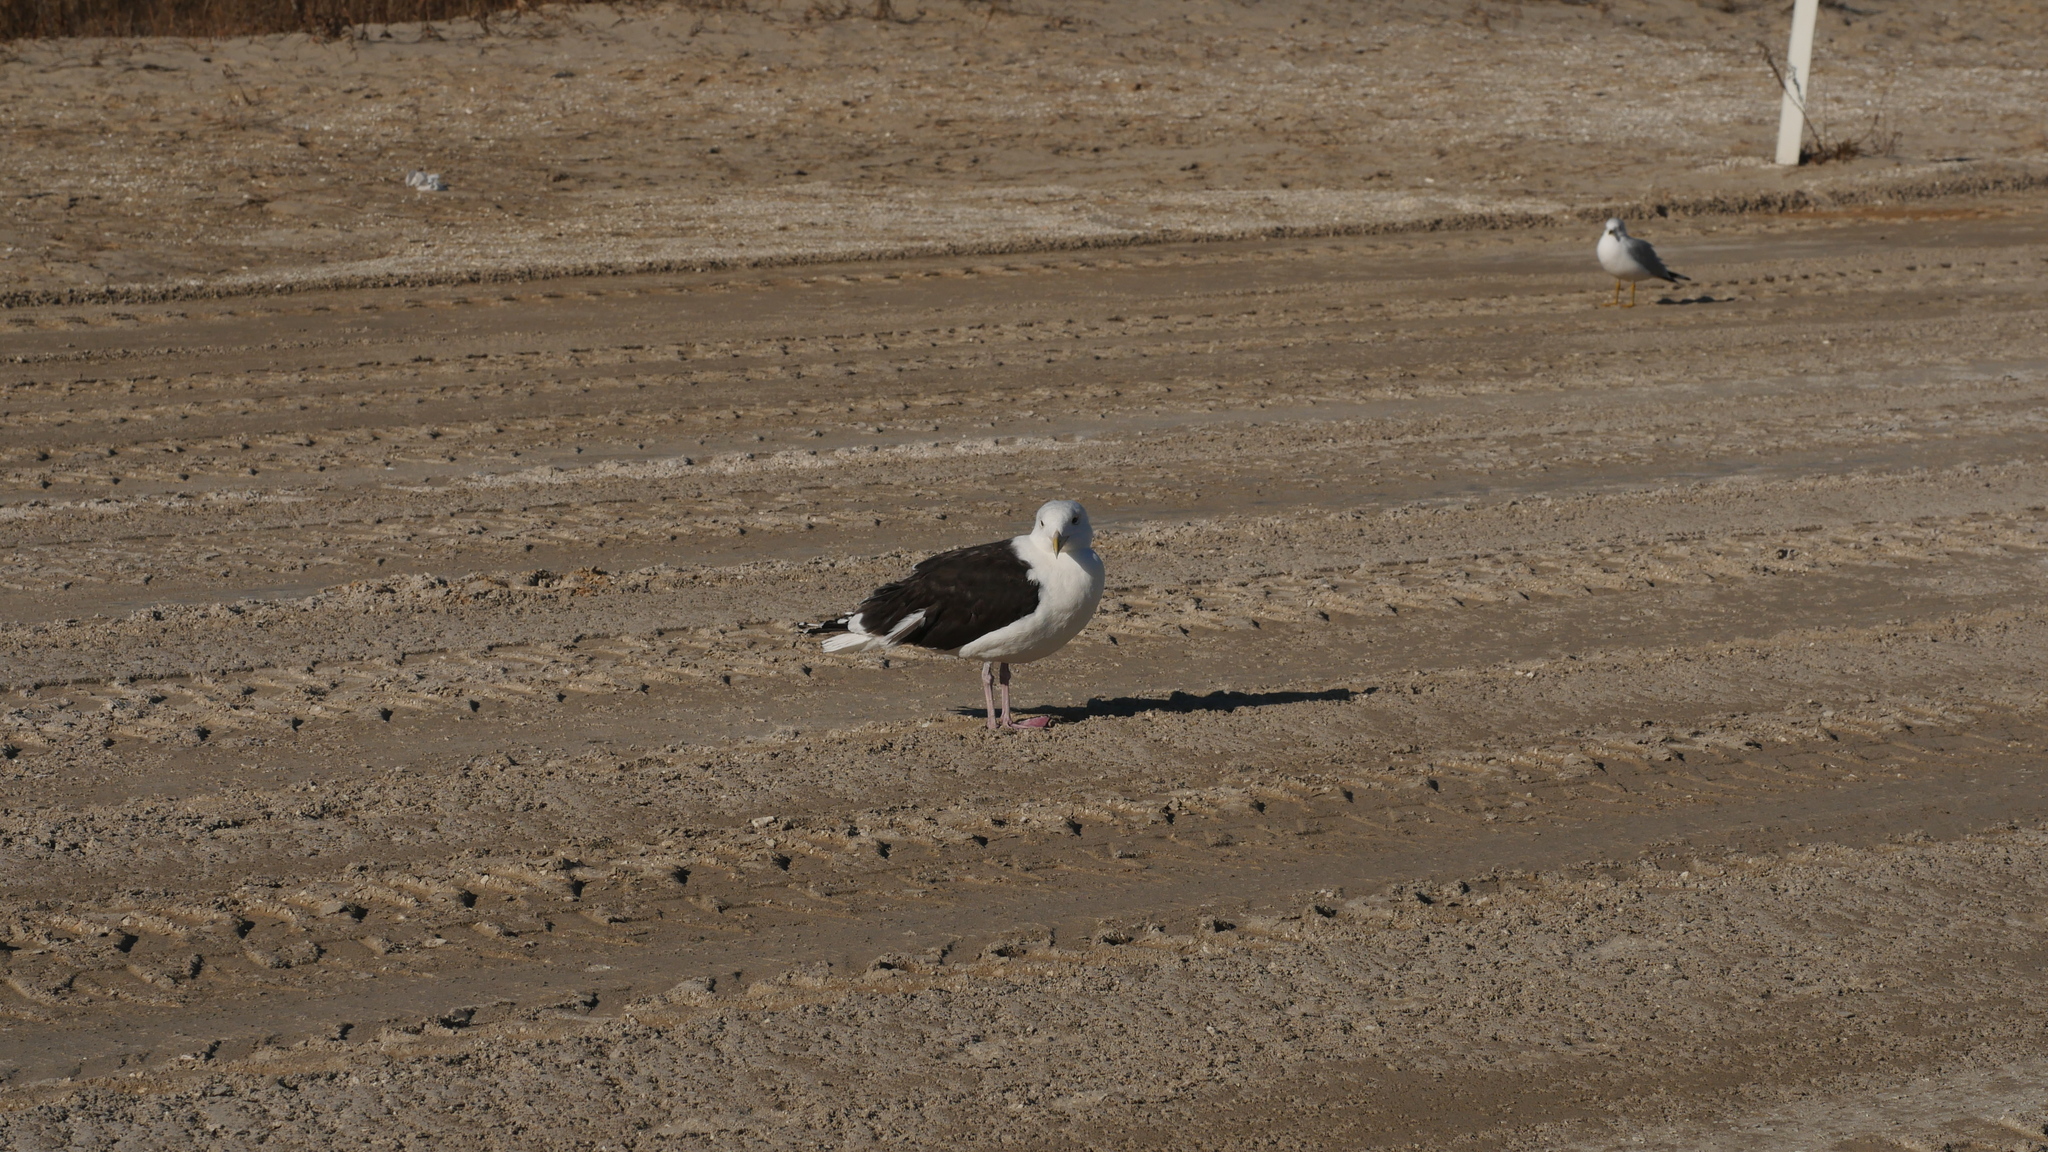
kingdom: Animalia
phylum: Chordata
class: Aves
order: Charadriiformes
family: Laridae
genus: Larus
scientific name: Larus marinus
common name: Great black-backed gull
